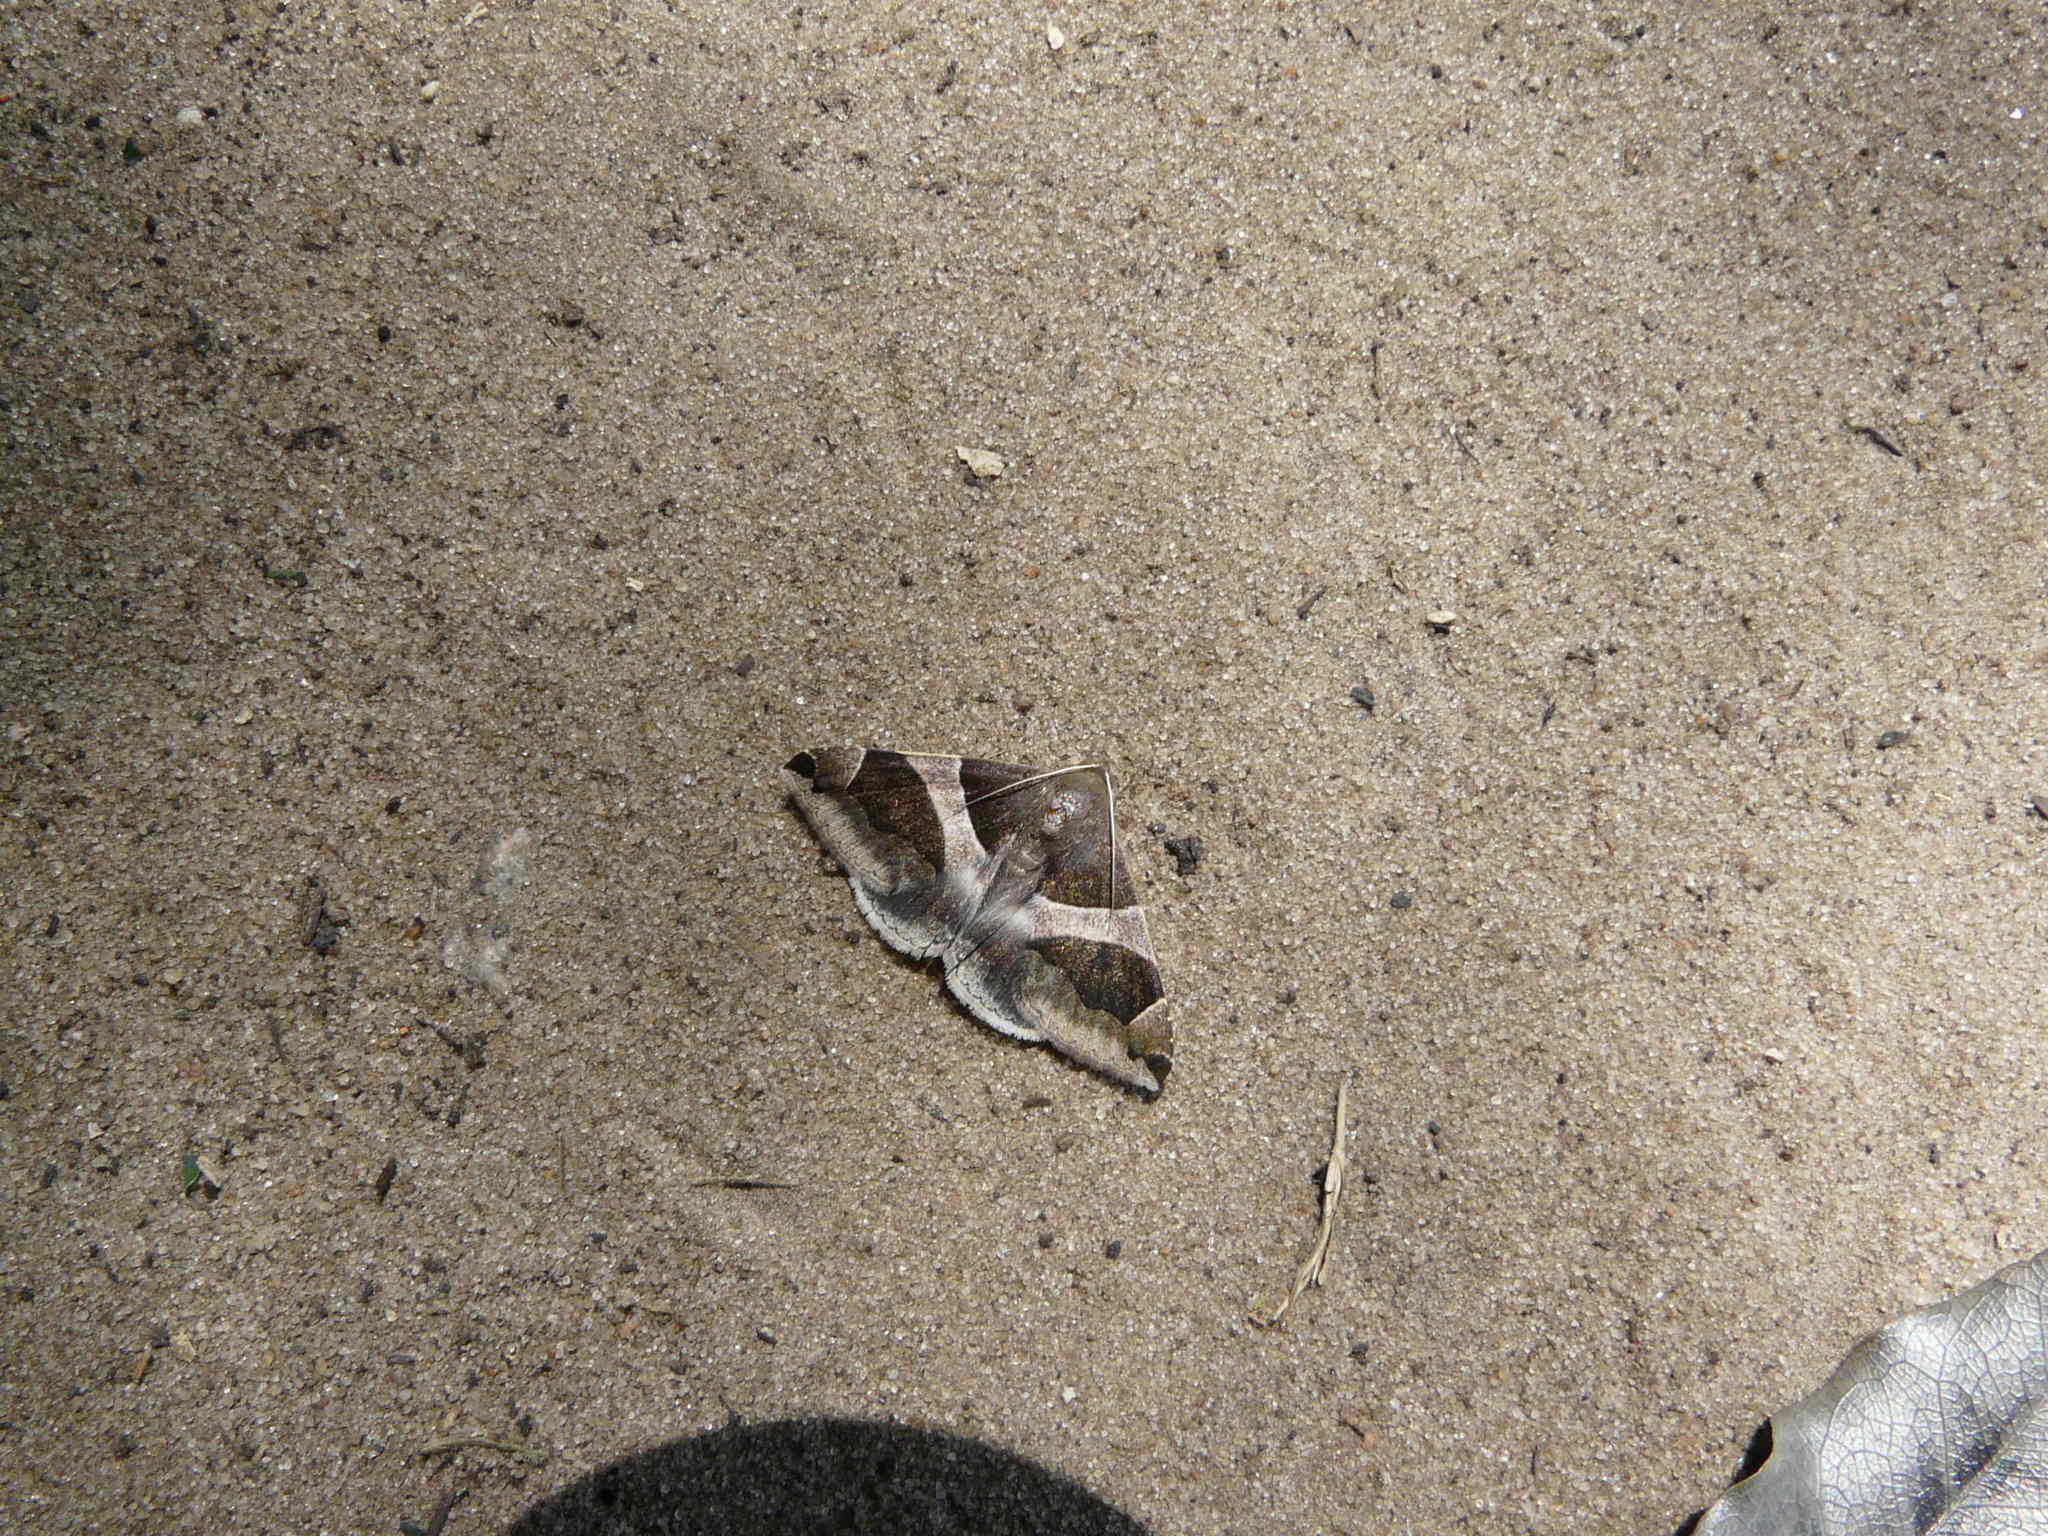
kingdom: Animalia
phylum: Arthropoda
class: Insecta
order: Lepidoptera
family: Erebidae
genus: Dysgonia
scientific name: Dysgonia torrida
